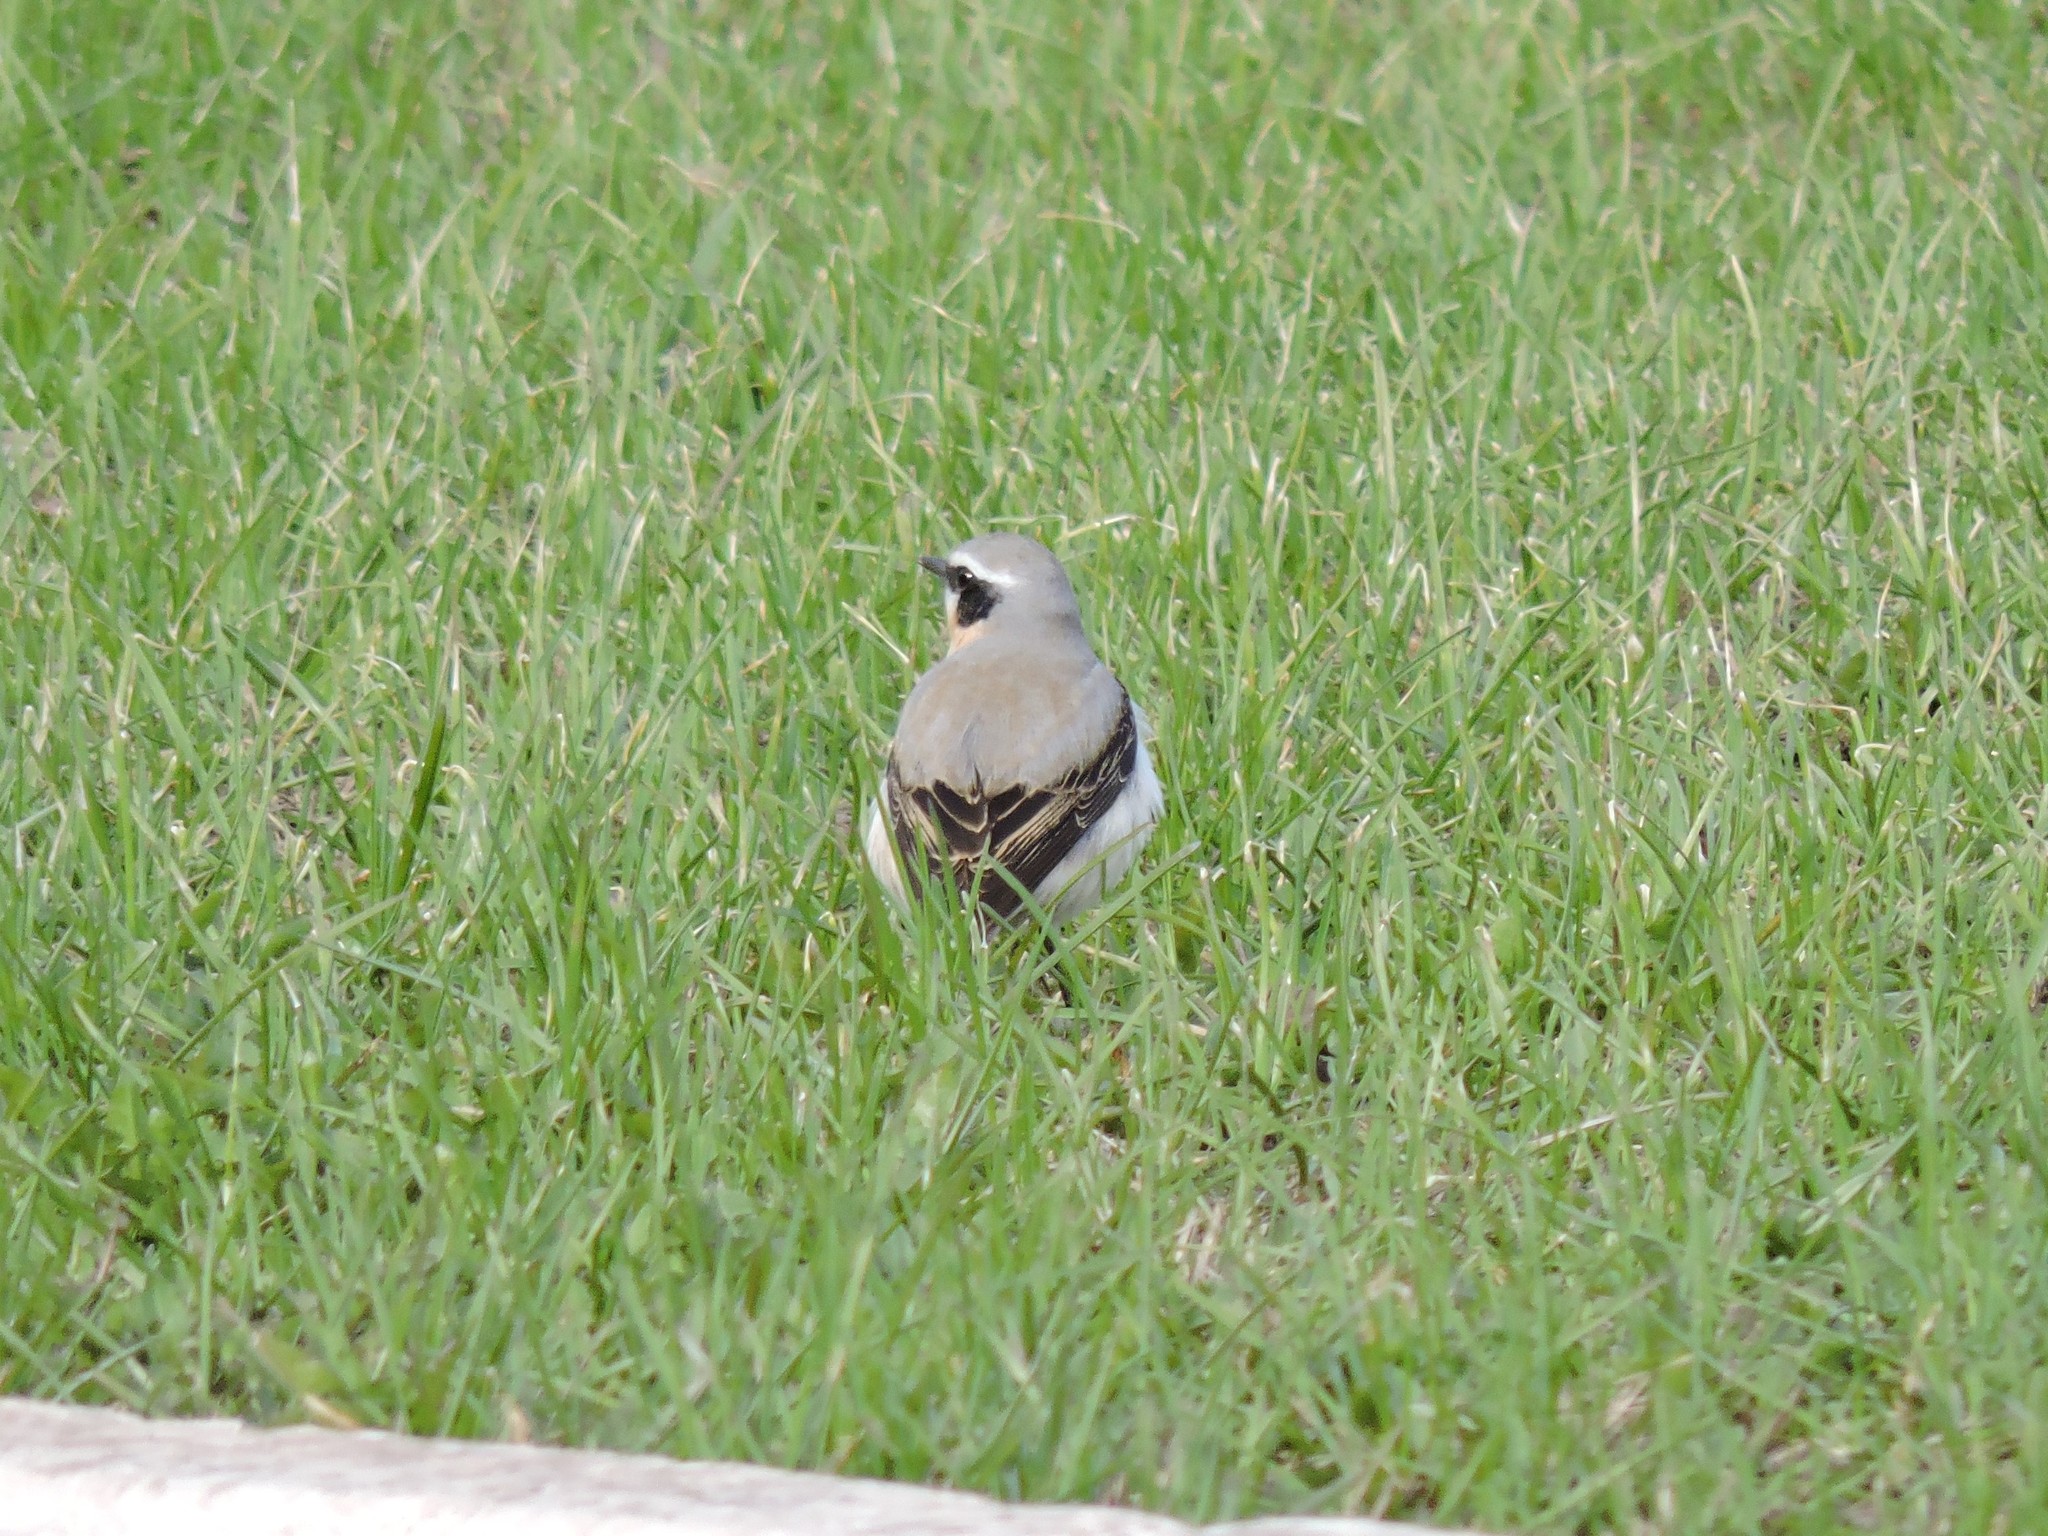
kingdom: Animalia
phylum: Chordata
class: Aves
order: Passeriformes
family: Muscicapidae
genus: Oenanthe
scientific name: Oenanthe oenanthe
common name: Northern wheatear
